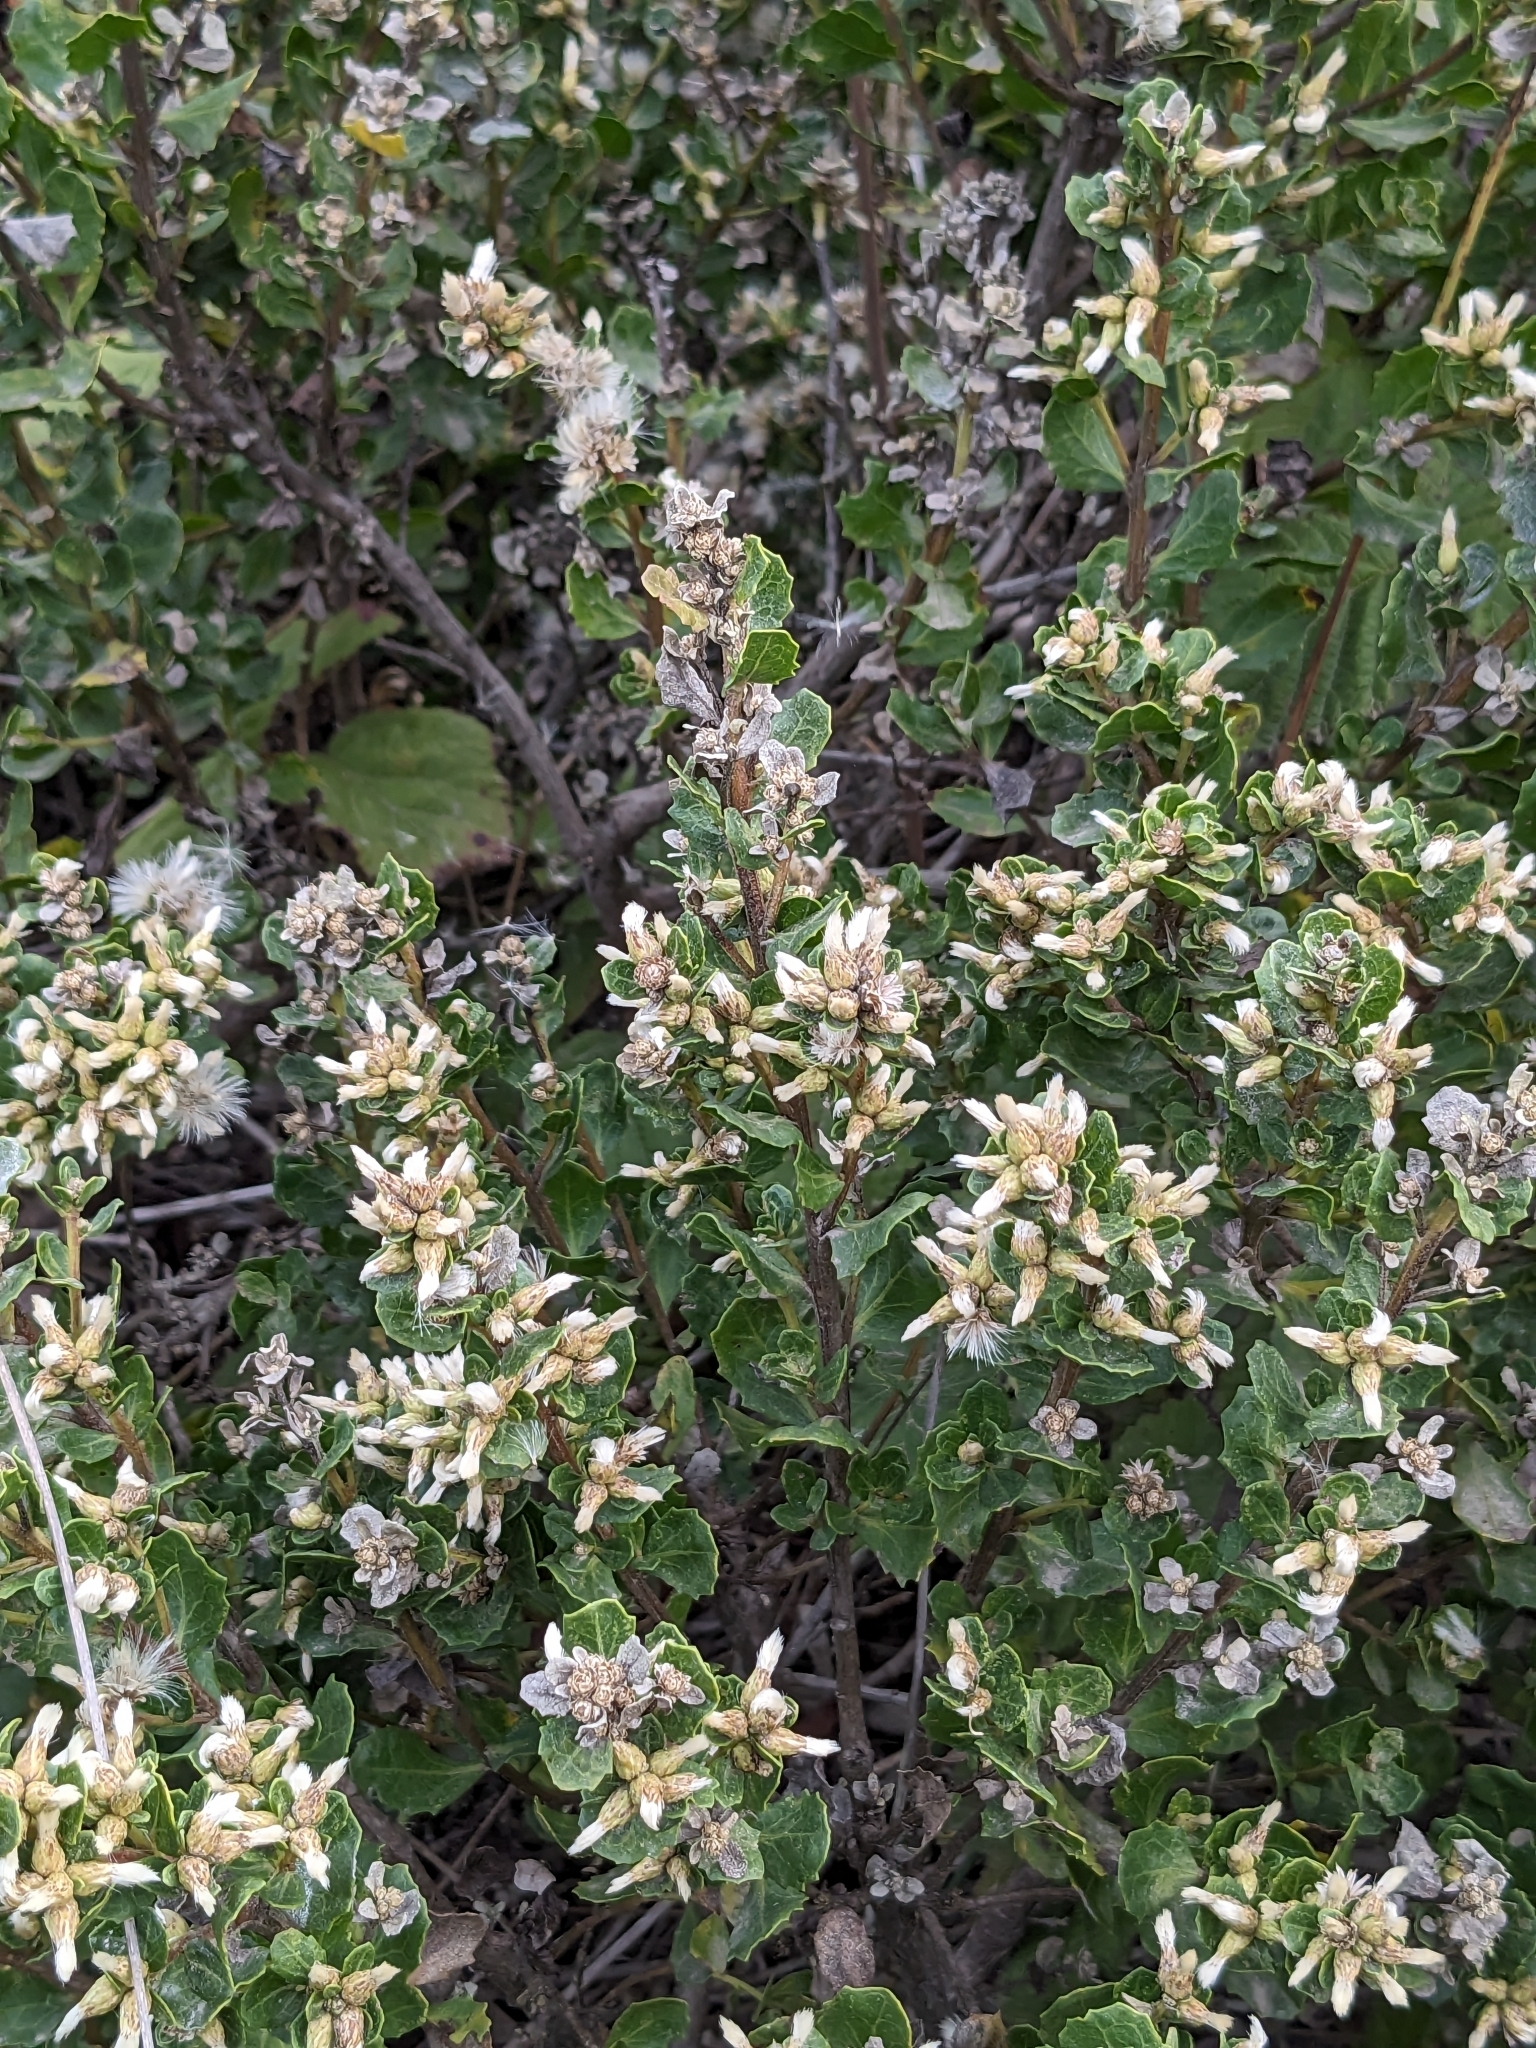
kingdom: Plantae
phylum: Tracheophyta
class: Magnoliopsida
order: Asterales
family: Asteraceae
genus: Baccharis
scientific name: Baccharis pilularis
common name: Coyotebrush
